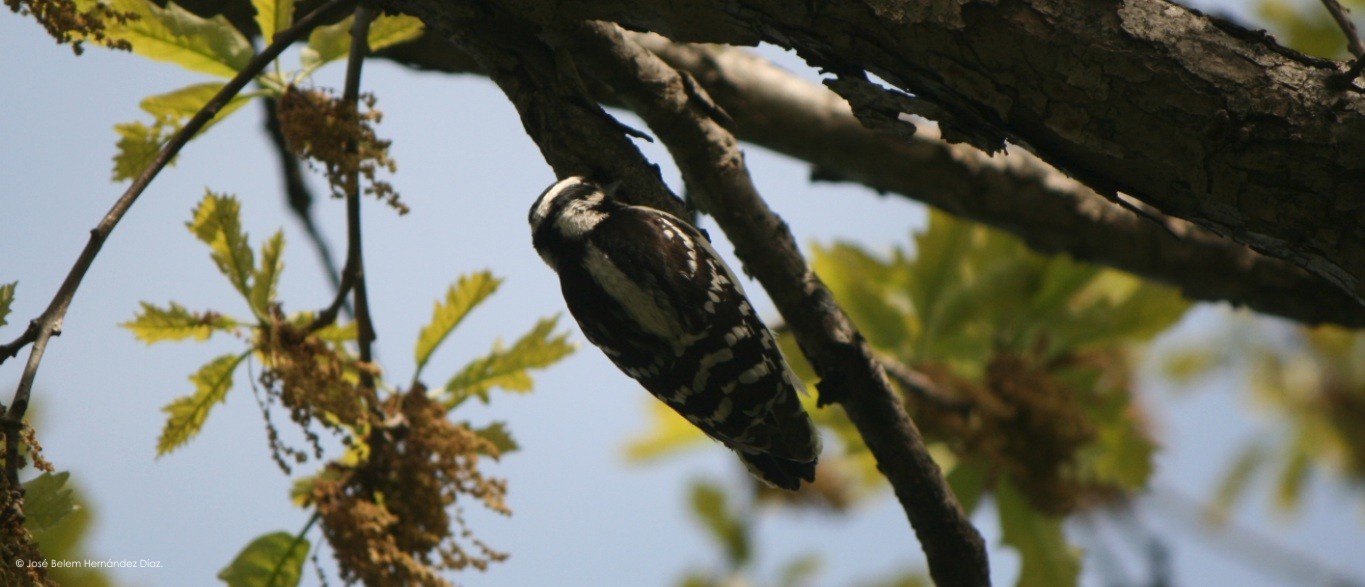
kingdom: Animalia
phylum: Chordata
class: Aves
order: Piciformes
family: Picidae
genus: Dryobates
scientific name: Dryobates pubescens
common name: Downy woodpecker
